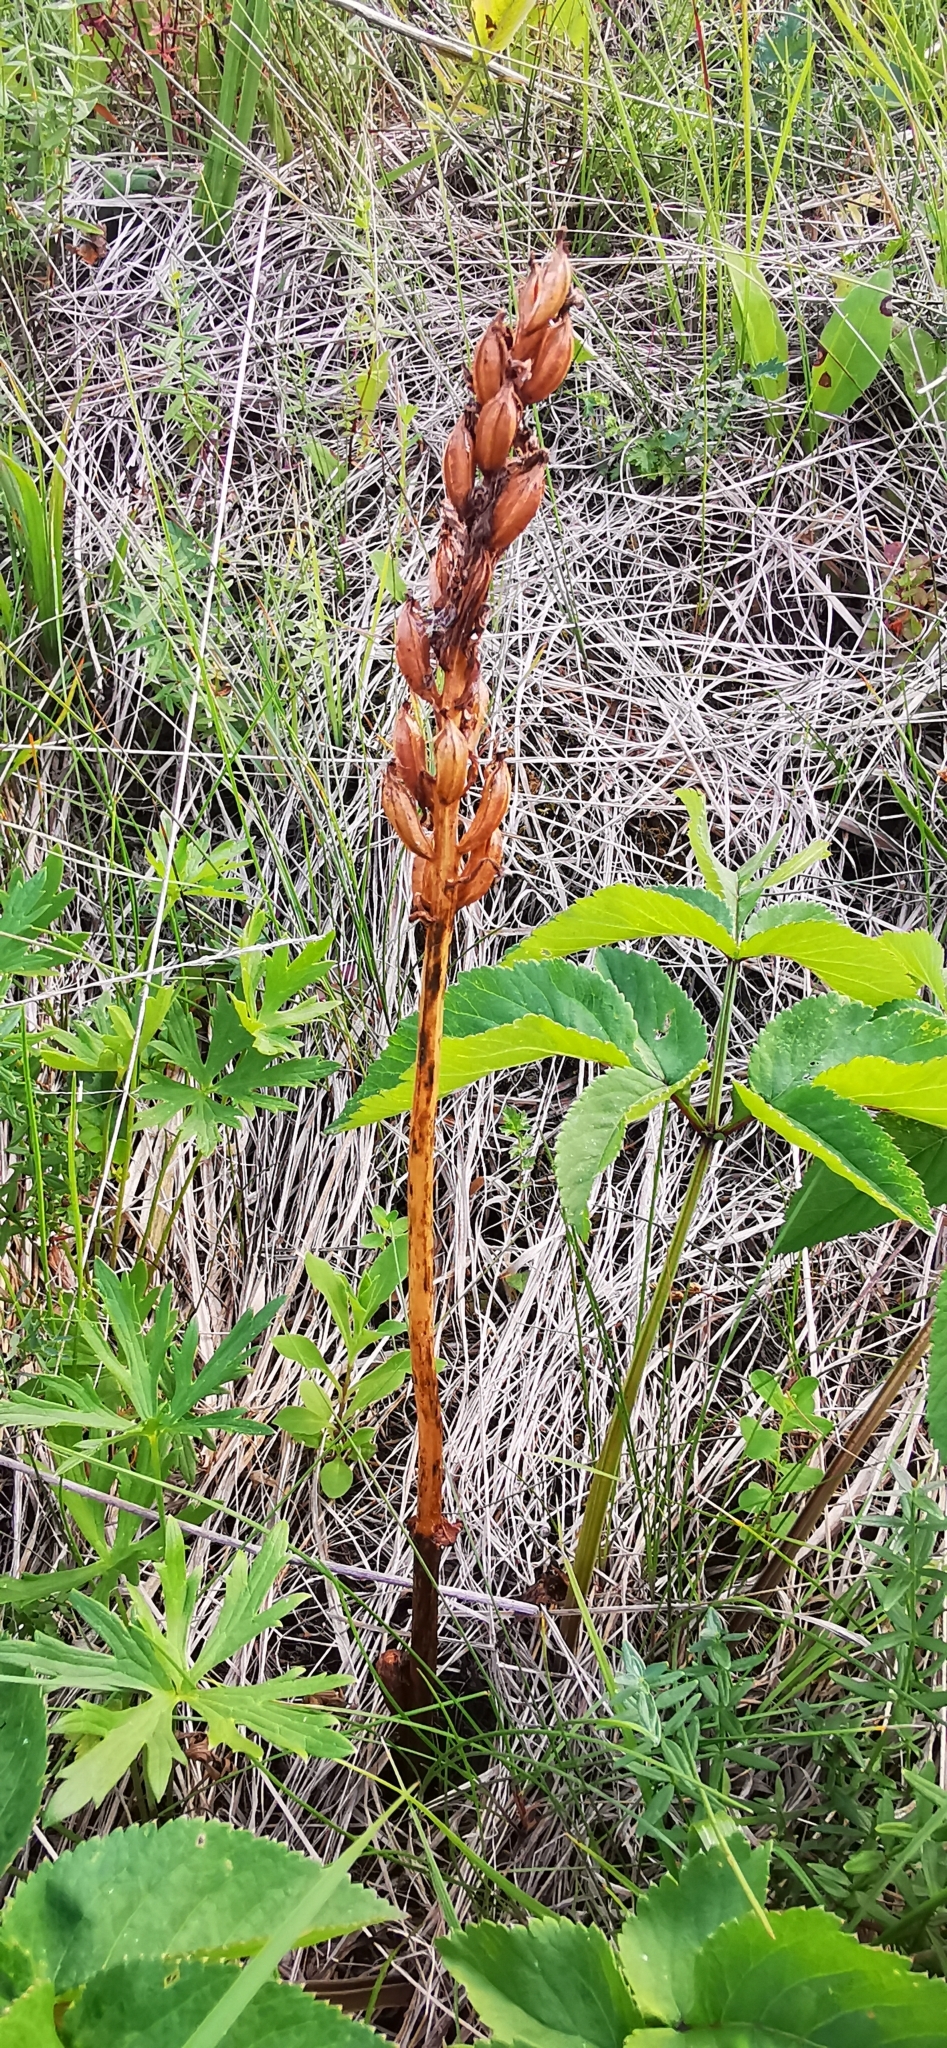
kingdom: Plantae
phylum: Tracheophyta
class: Liliopsida
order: Asparagales
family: Orchidaceae
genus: Orchis
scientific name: Orchis militaris
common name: Military orchid
